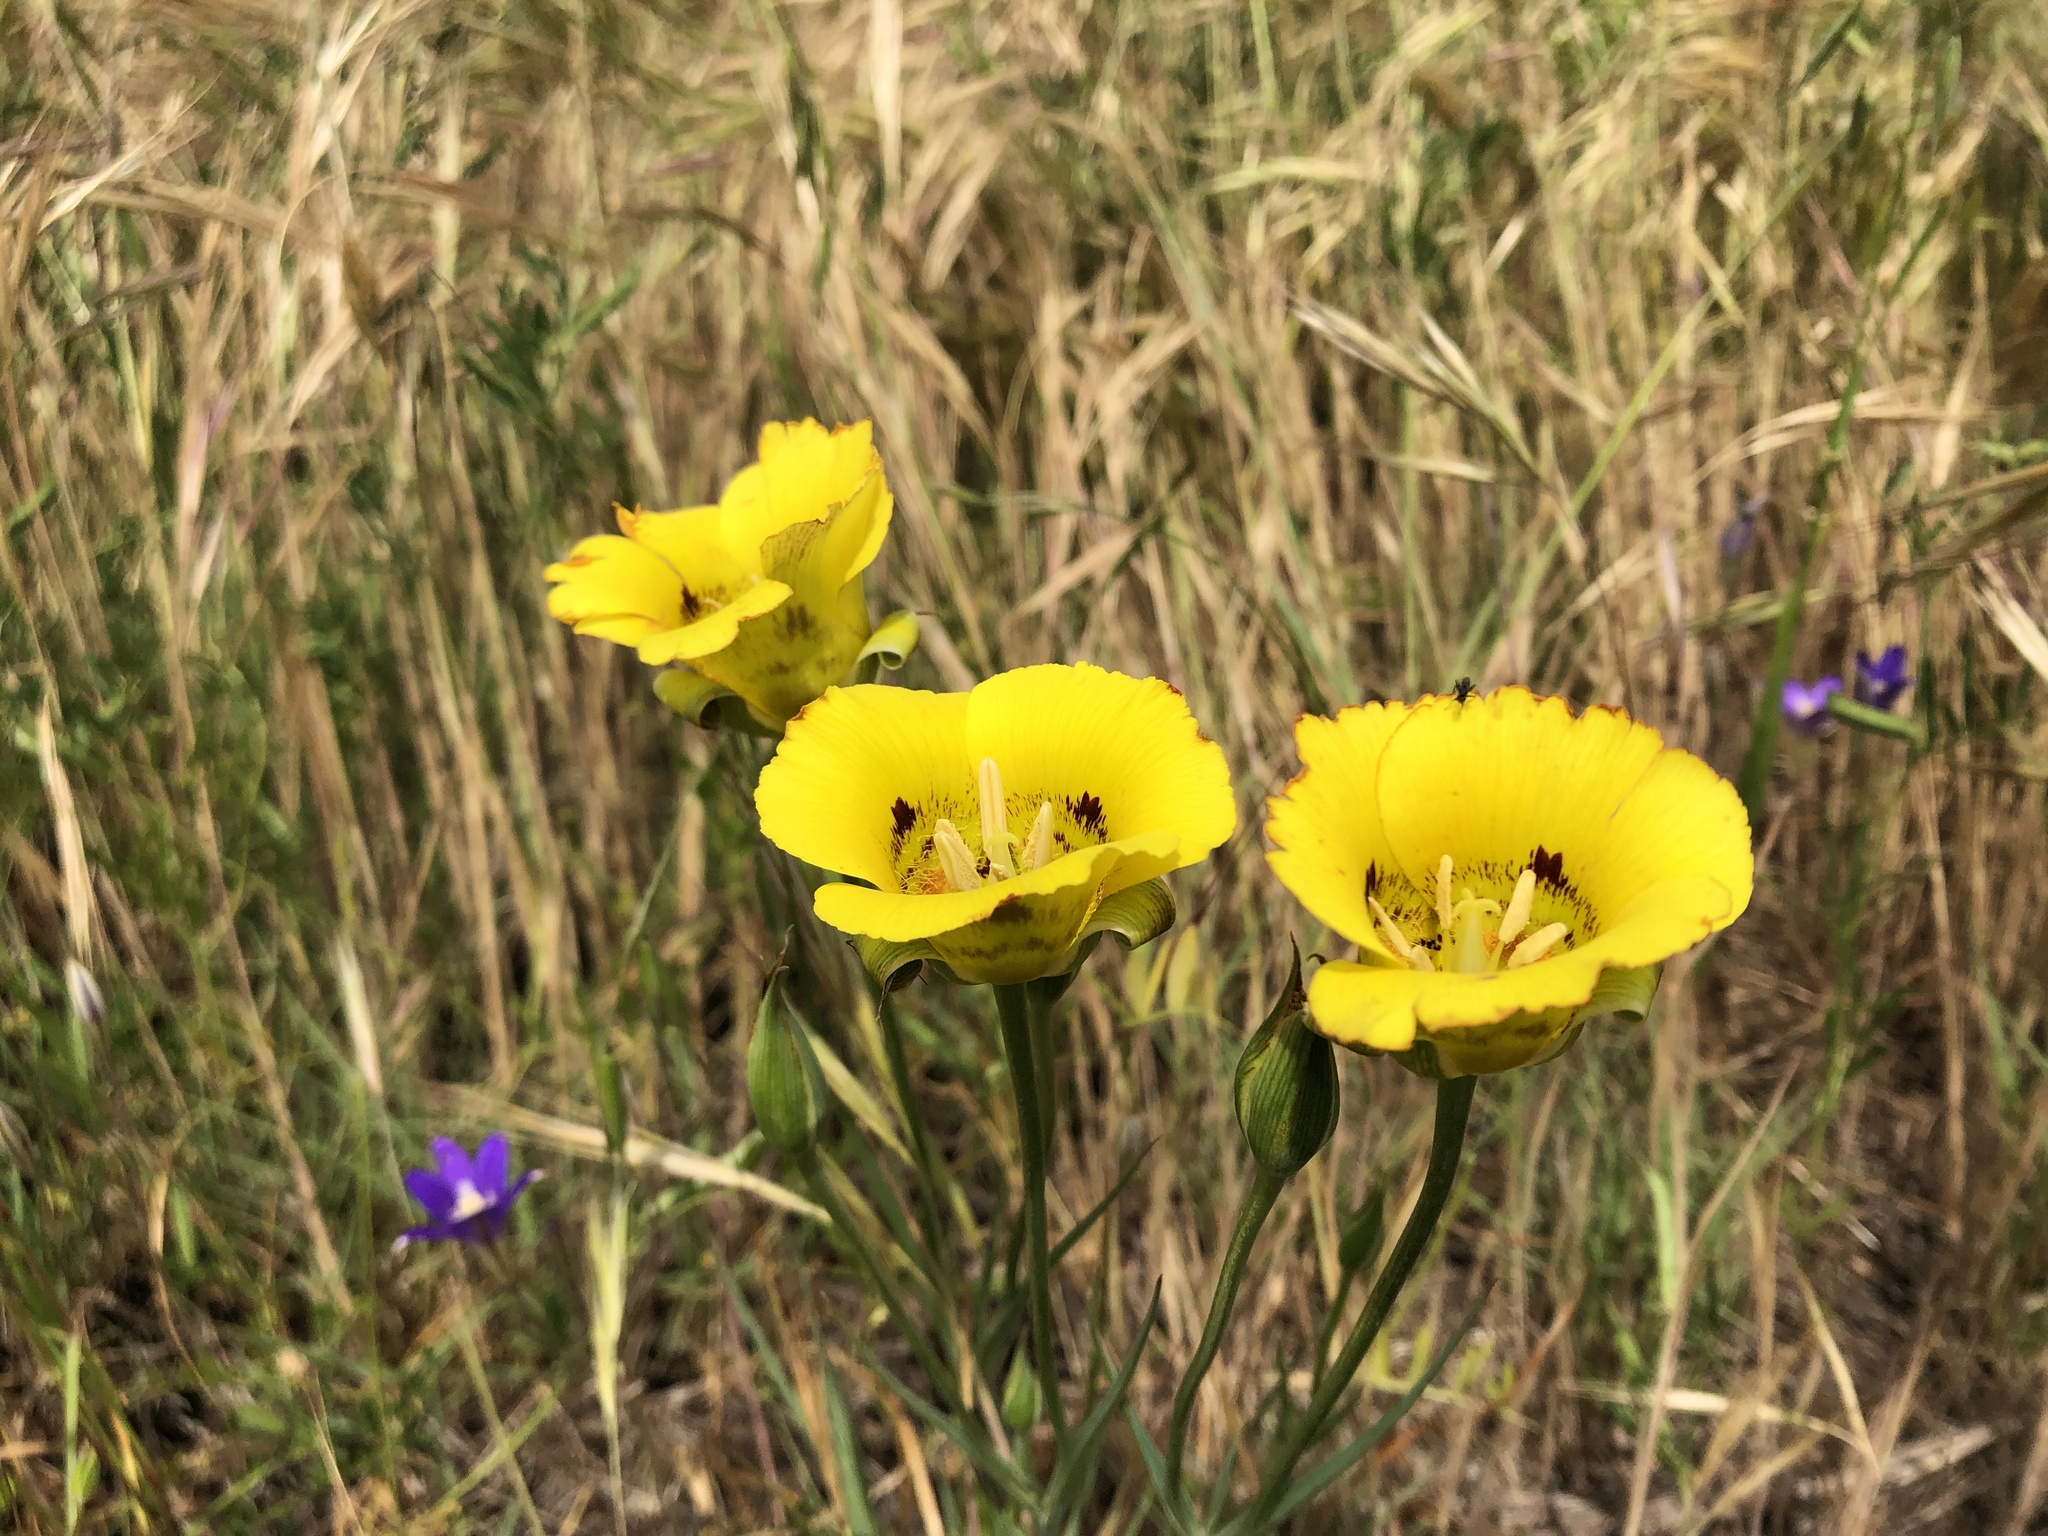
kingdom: Plantae
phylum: Tracheophyta
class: Liliopsida
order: Liliales
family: Liliaceae
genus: Calochortus
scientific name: Calochortus luteus
